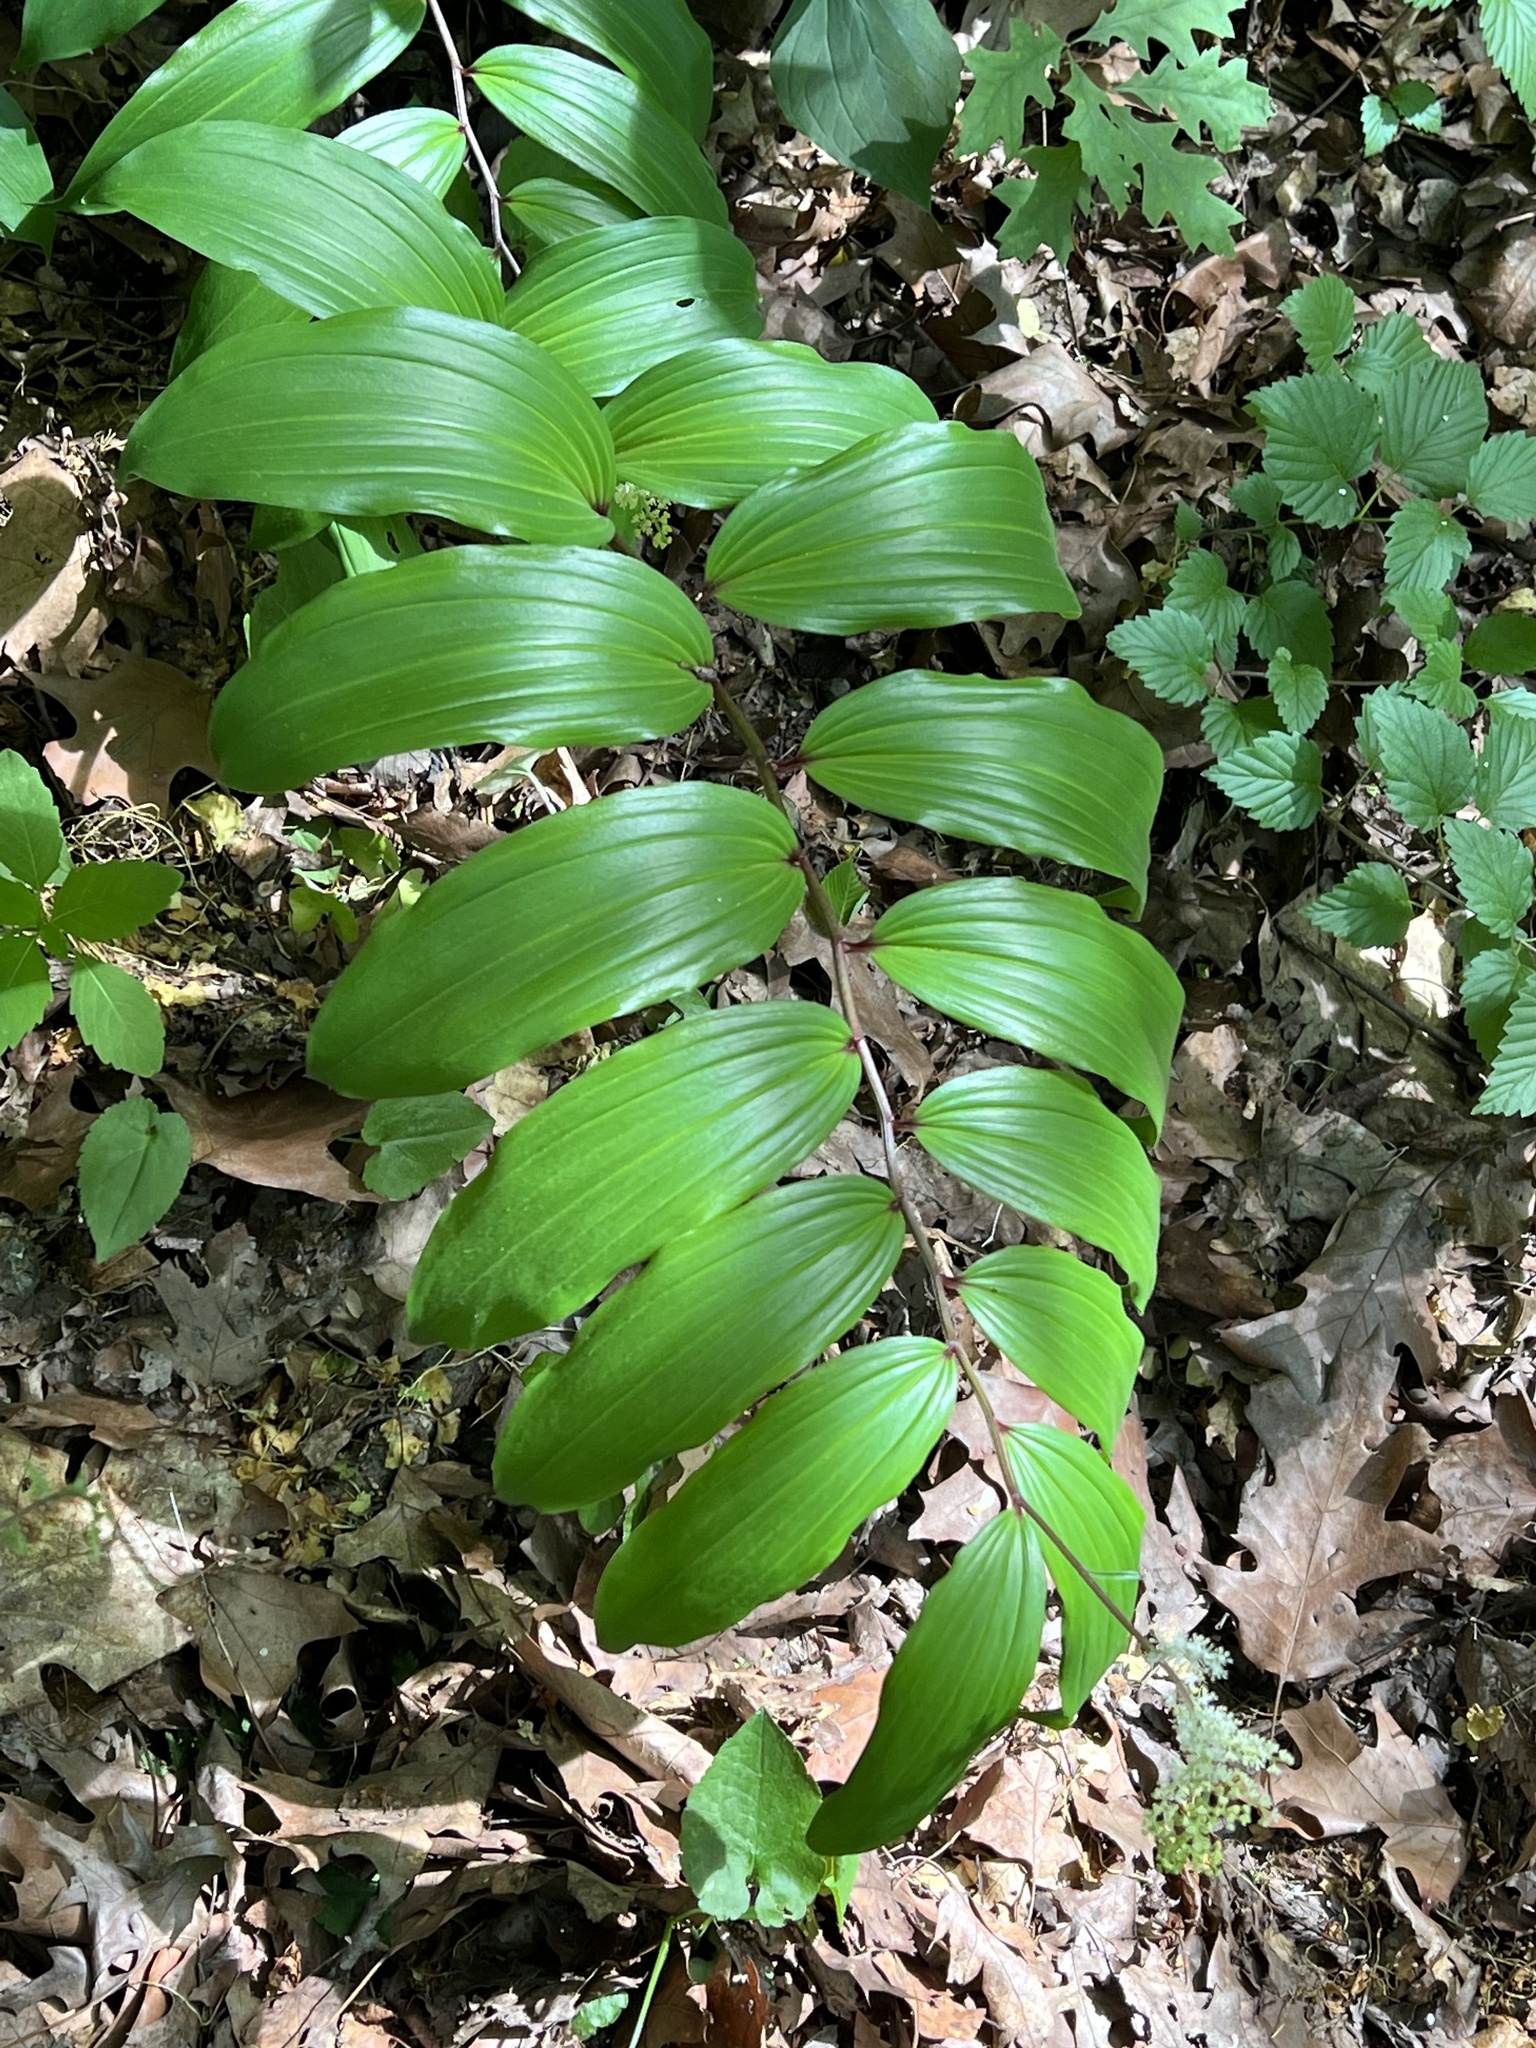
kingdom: Plantae
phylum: Tracheophyta
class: Liliopsida
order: Asparagales
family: Asparagaceae
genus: Maianthemum
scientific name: Maianthemum racemosum
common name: False spikenard
